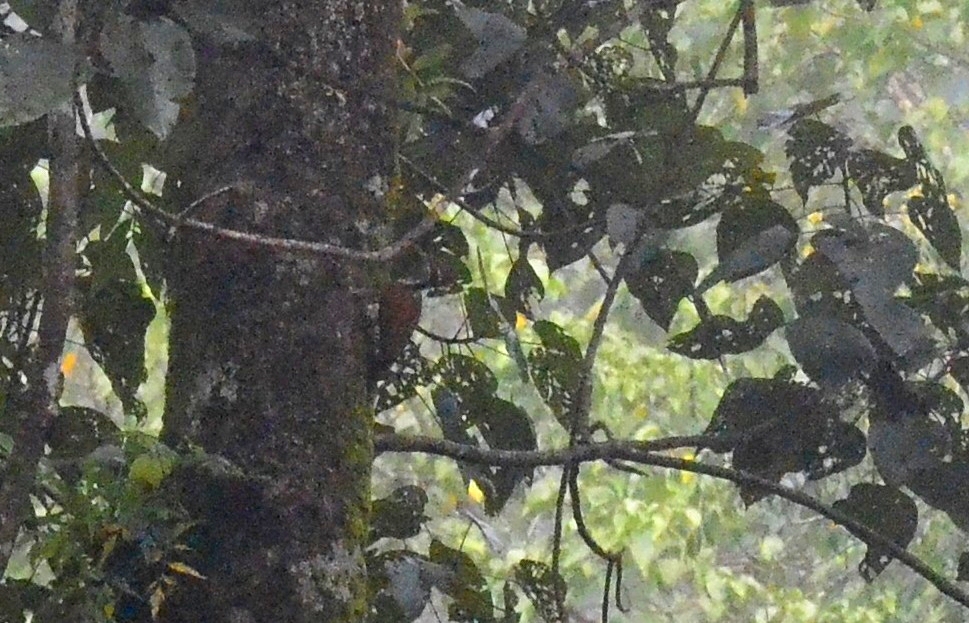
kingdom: Animalia
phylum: Chordata
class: Aves
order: Piciformes
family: Picidae
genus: Chrysocolaptes
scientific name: Chrysocolaptes socialis
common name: Malabar flameback
